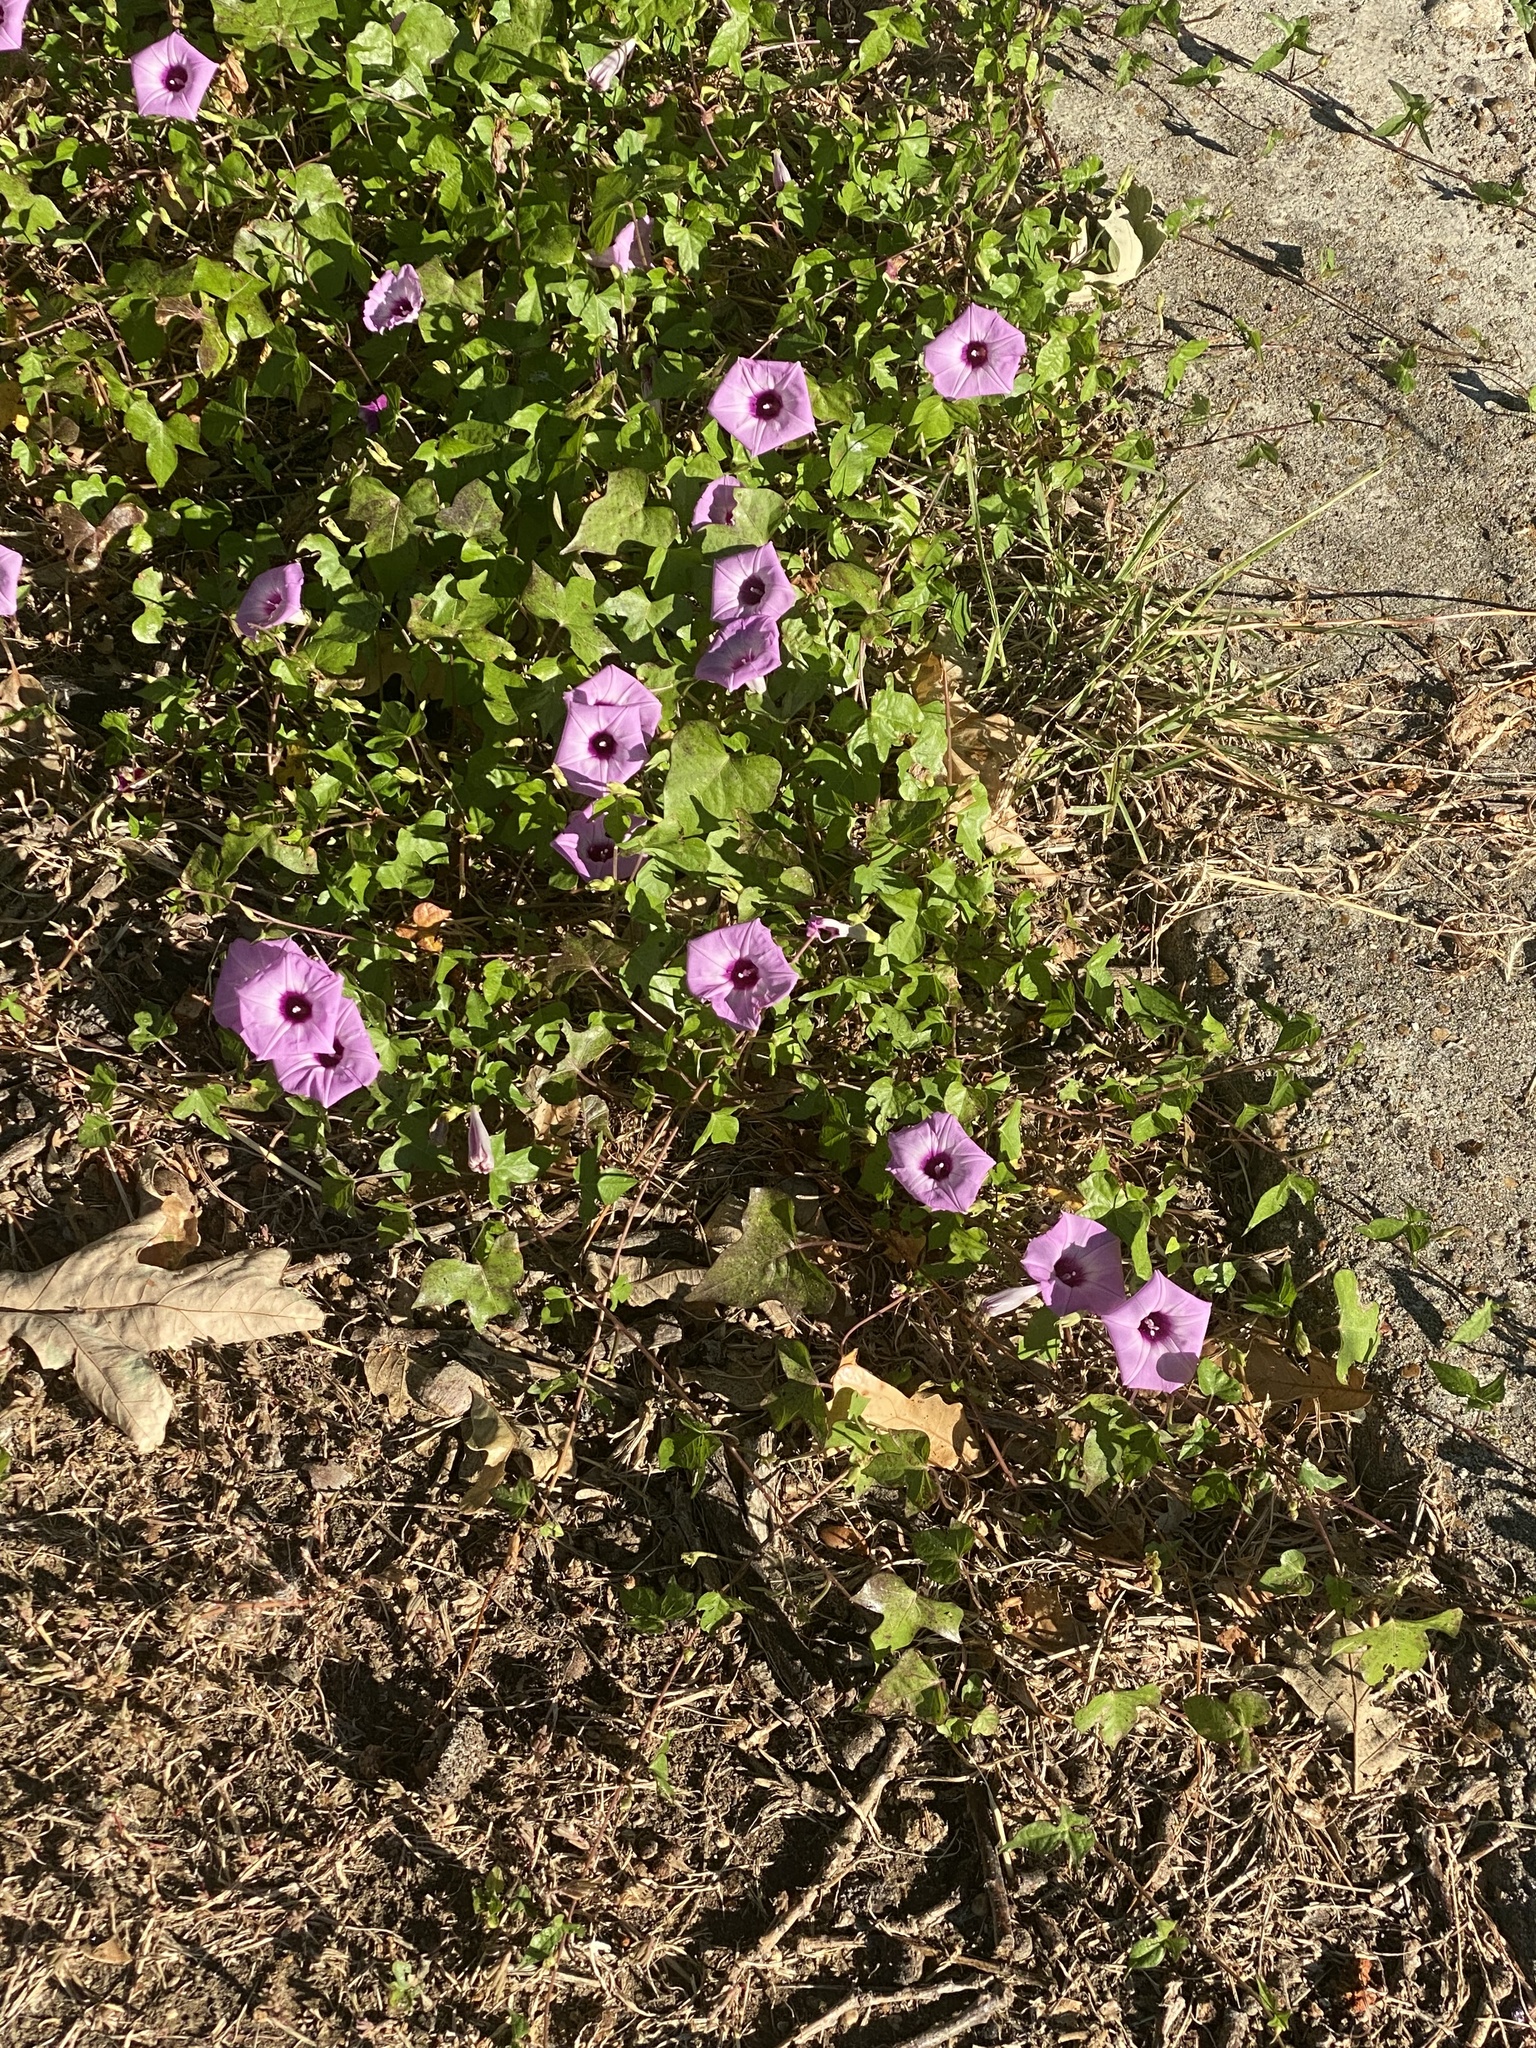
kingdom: Plantae
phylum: Tracheophyta
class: Magnoliopsida
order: Solanales
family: Convolvulaceae
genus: Ipomoea
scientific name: Ipomoea cordatotriloba
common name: Cotton morning glory
